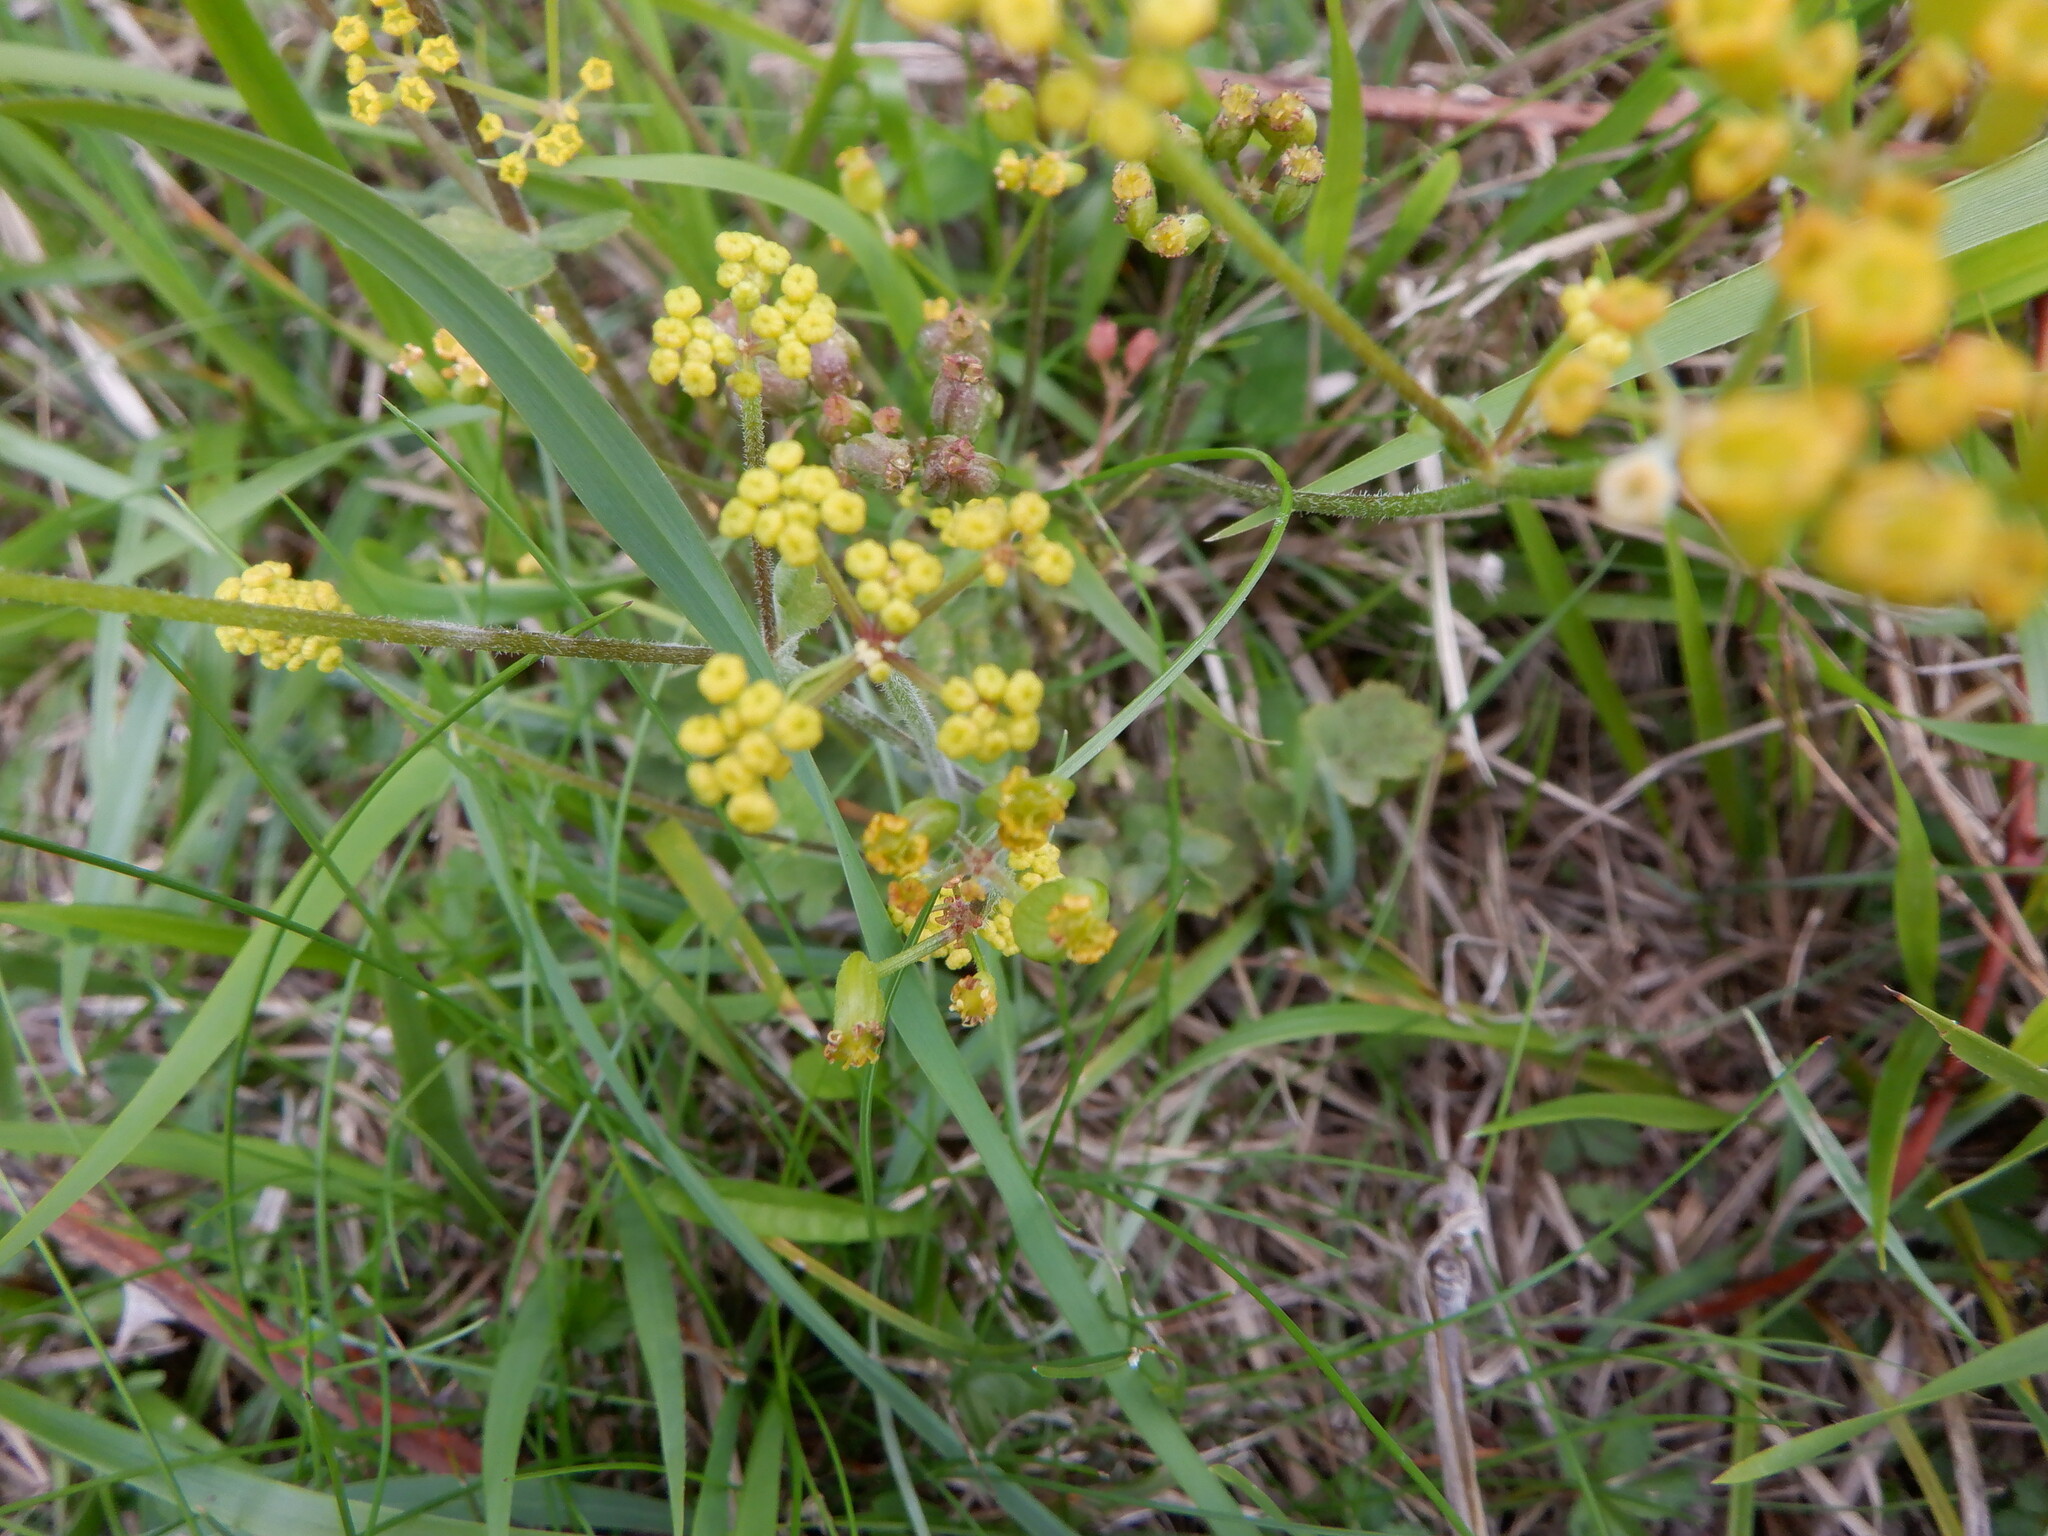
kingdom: Plantae
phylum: Tracheophyta
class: Magnoliopsida
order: Apiales
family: Apiaceae
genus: Pastinaca
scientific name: Pastinaca sativa
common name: Wild parsnip
